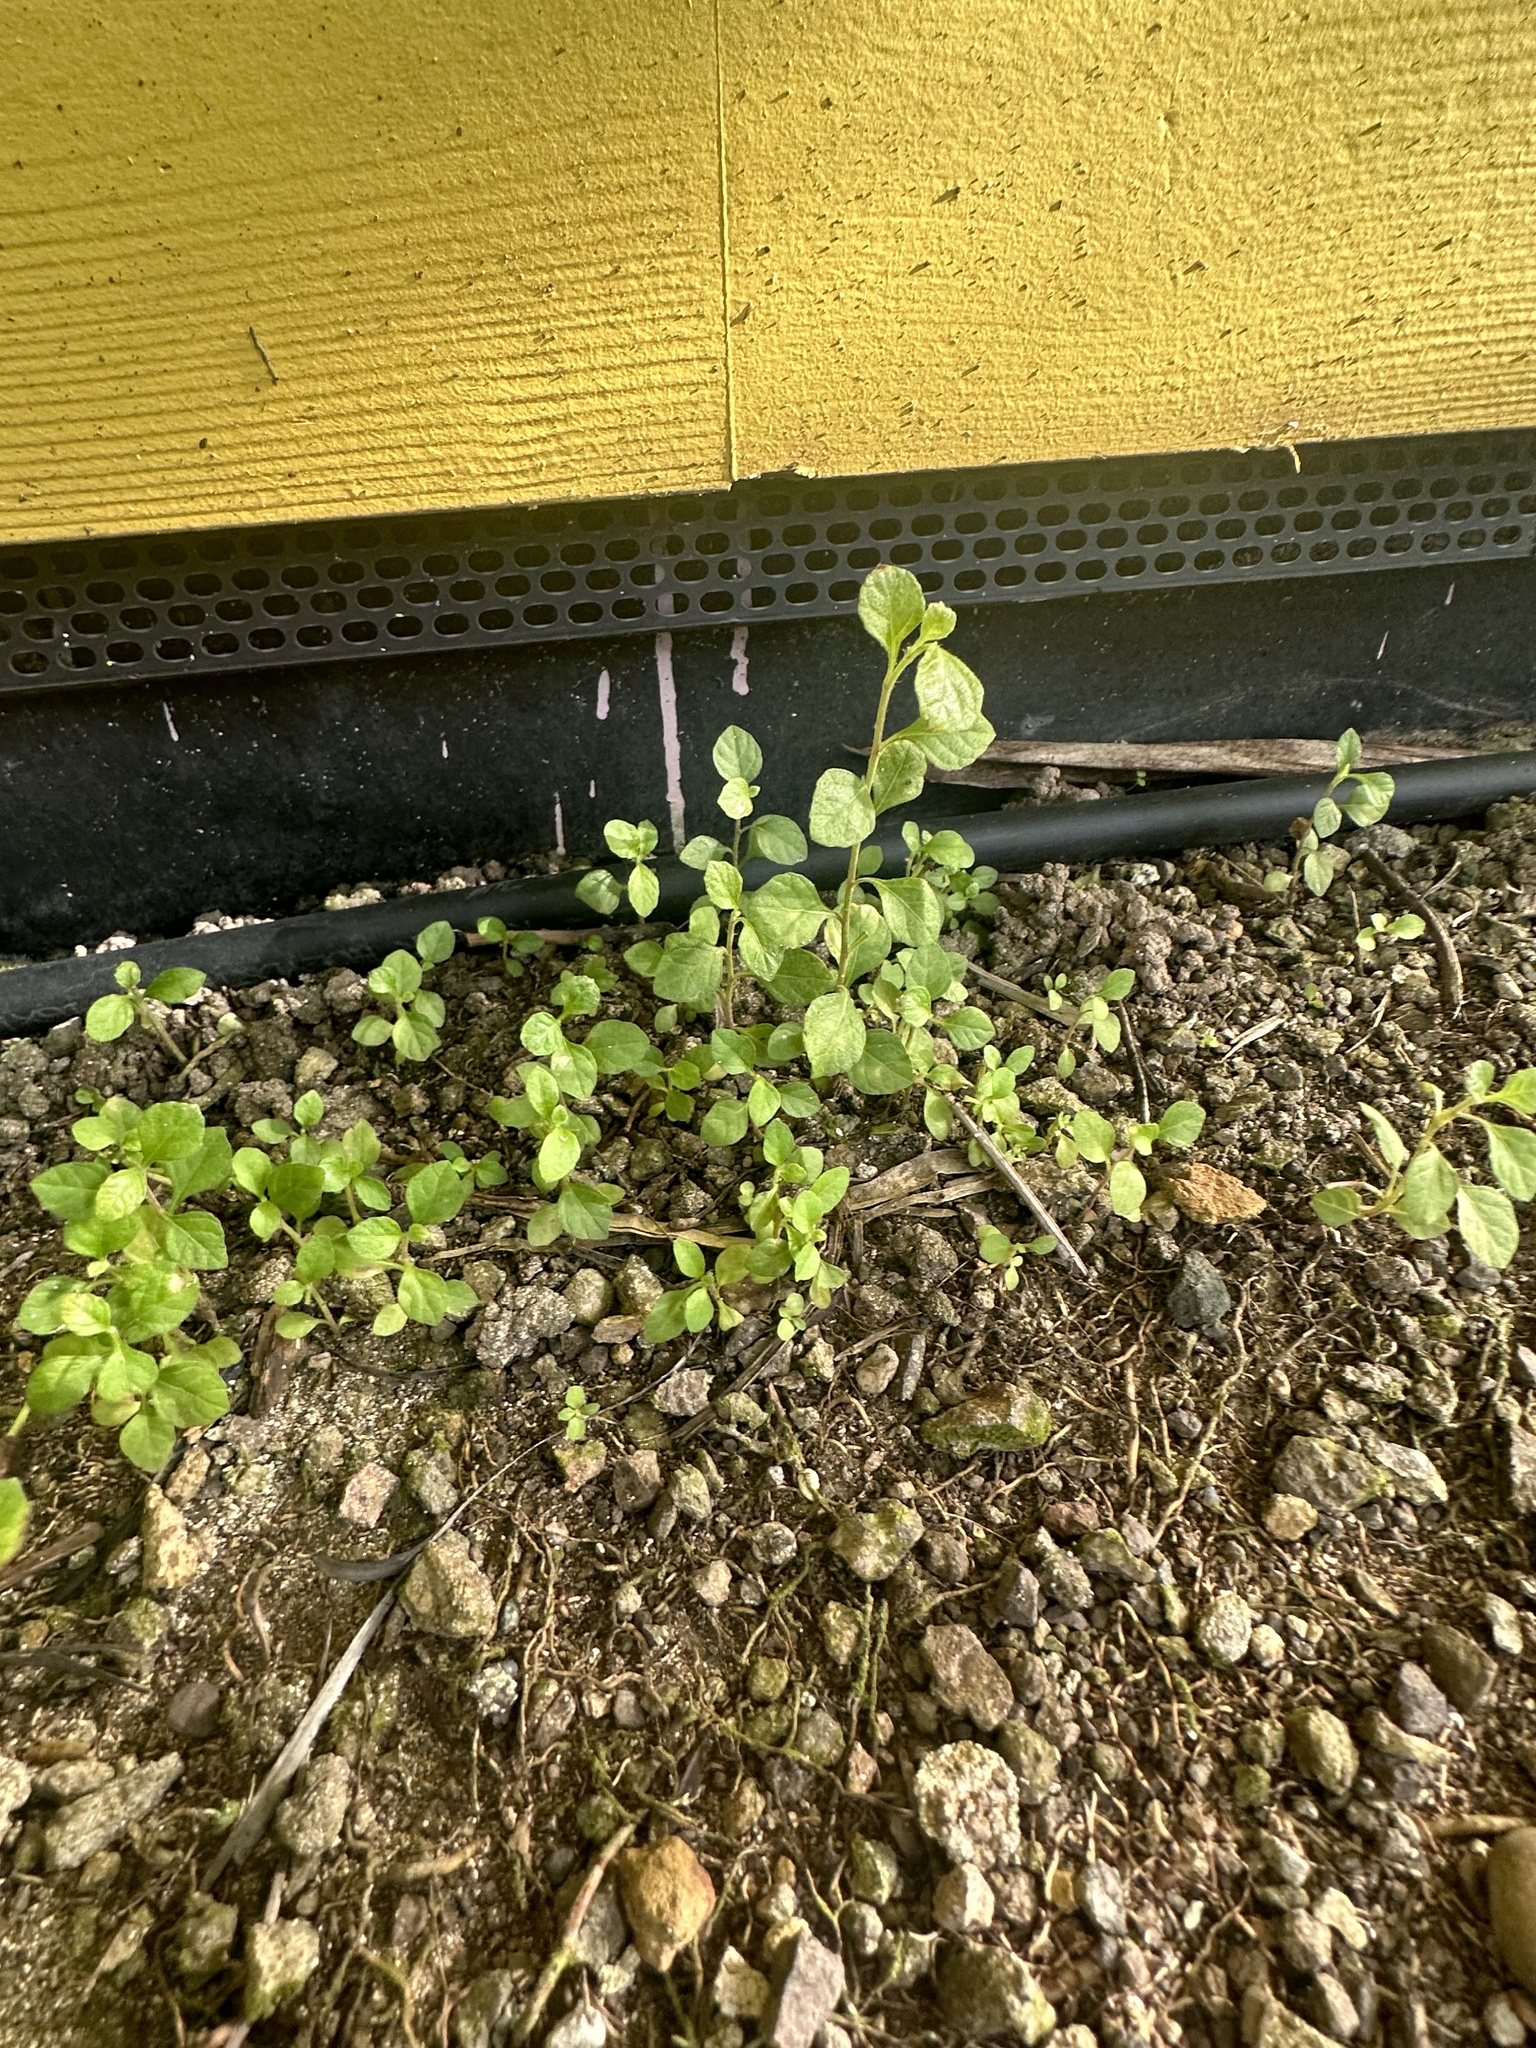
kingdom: Plantae
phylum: Tracheophyta
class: Magnoliopsida
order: Asterales
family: Asteraceae
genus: Cyanthillium
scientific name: Cyanthillium cinereum
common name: Little ironweed
